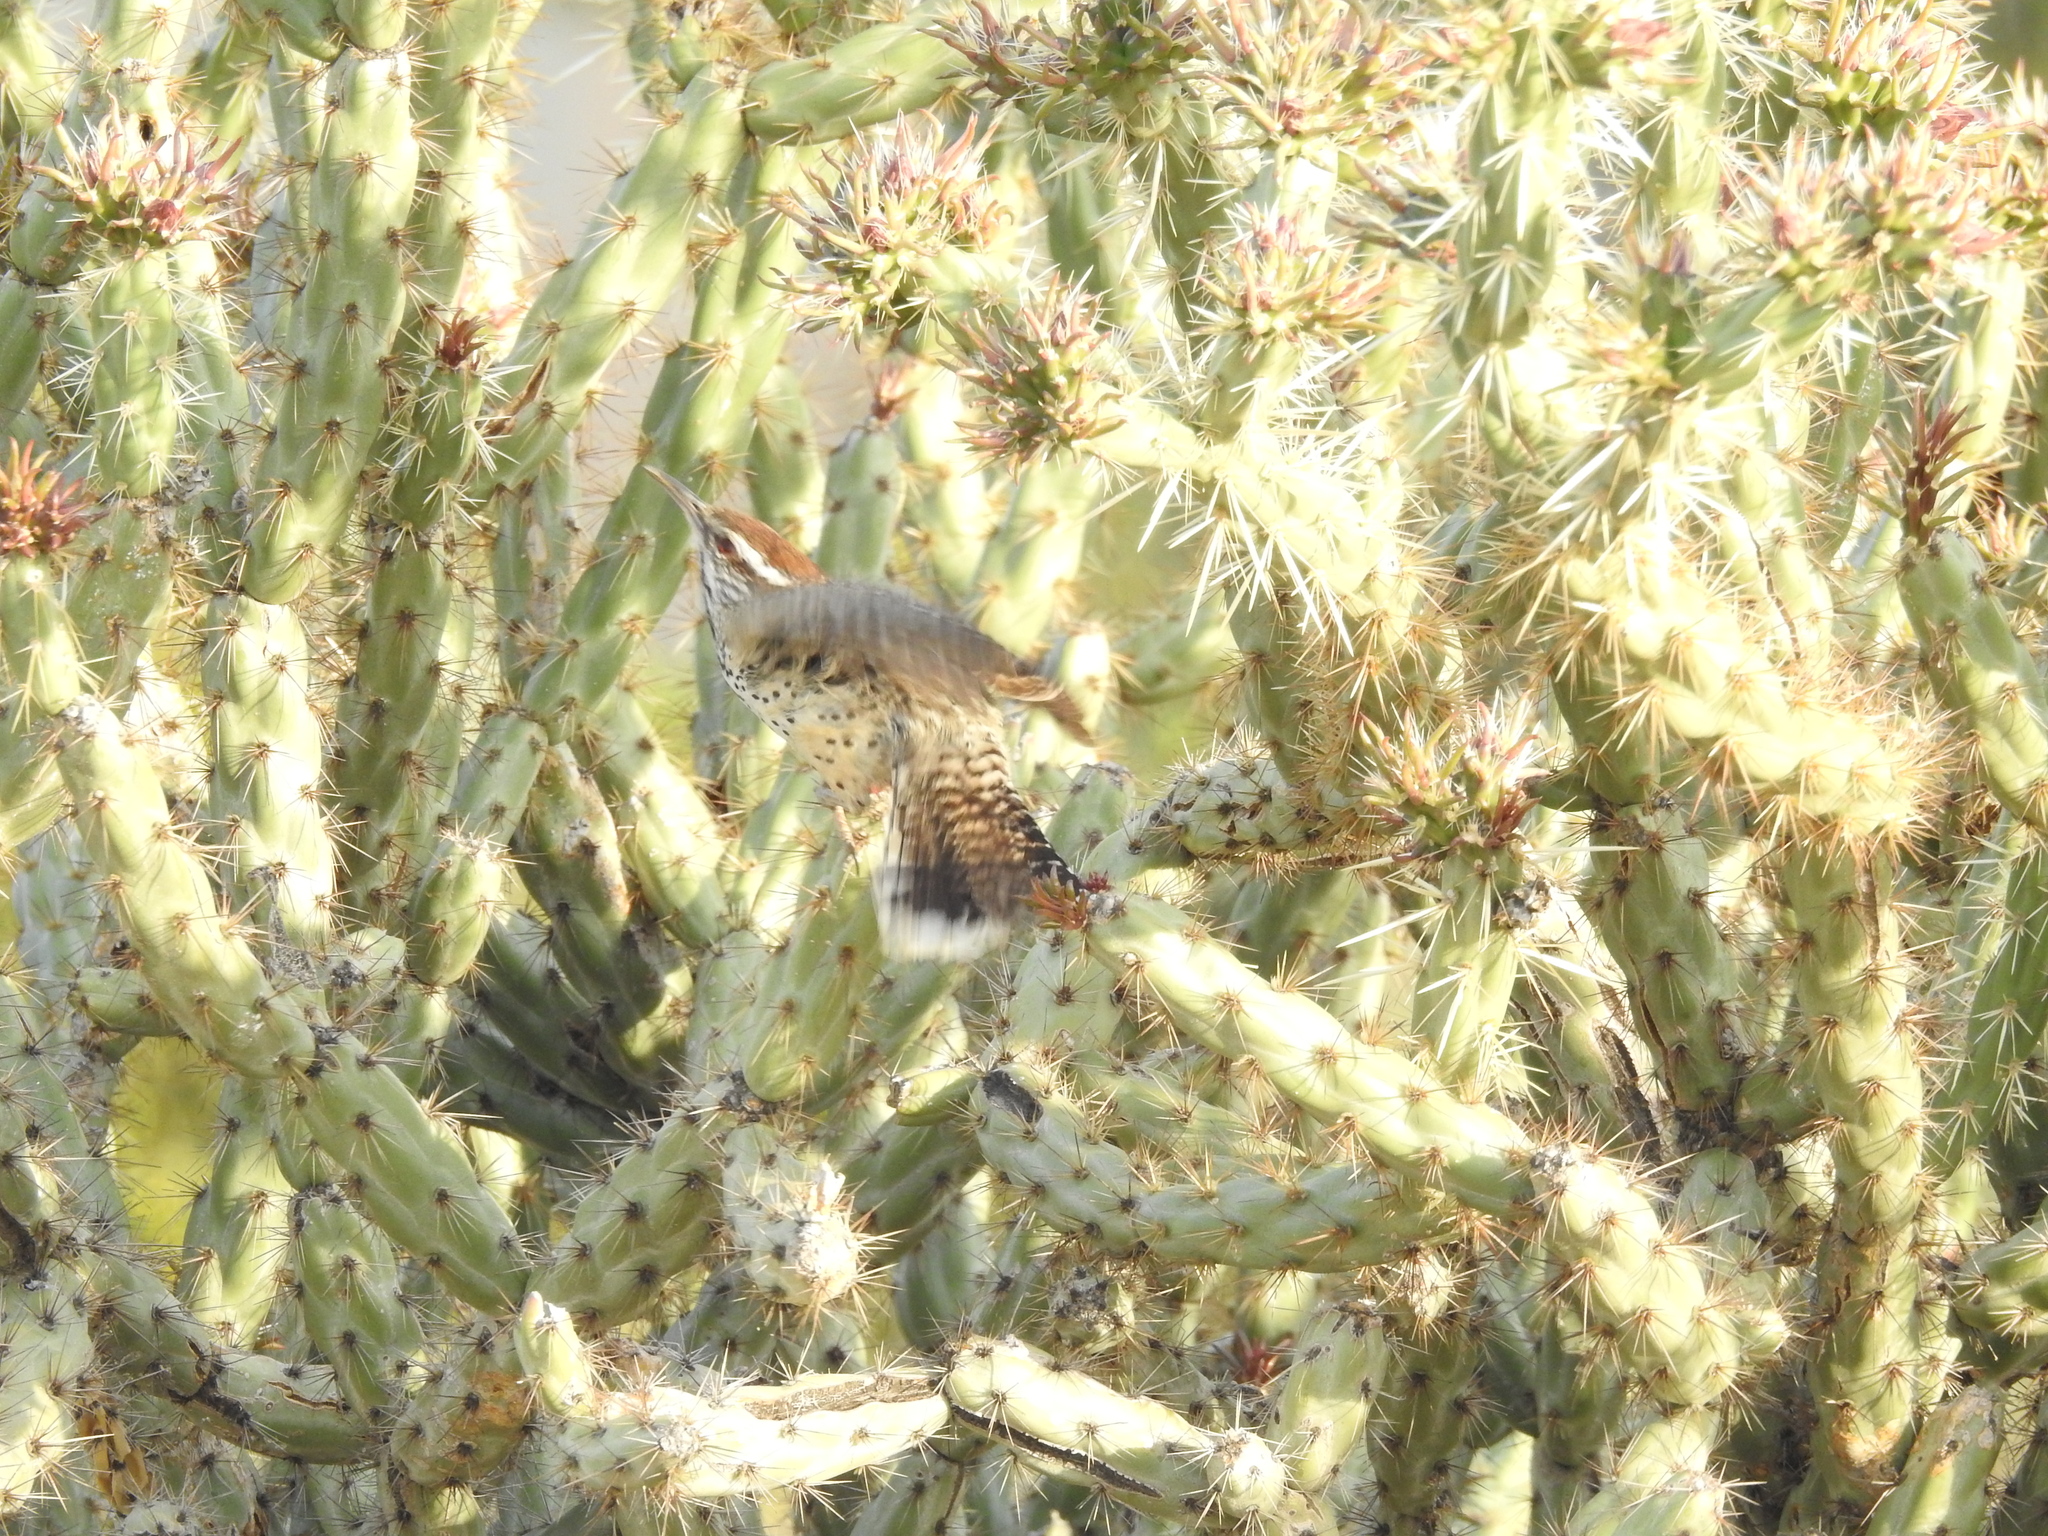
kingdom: Animalia
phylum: Chordata
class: Aves
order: Passeriformes
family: Troglodytidae
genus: Campylorhynchus
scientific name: Campylorhynchus brunneicapillus
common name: Cactus wren
